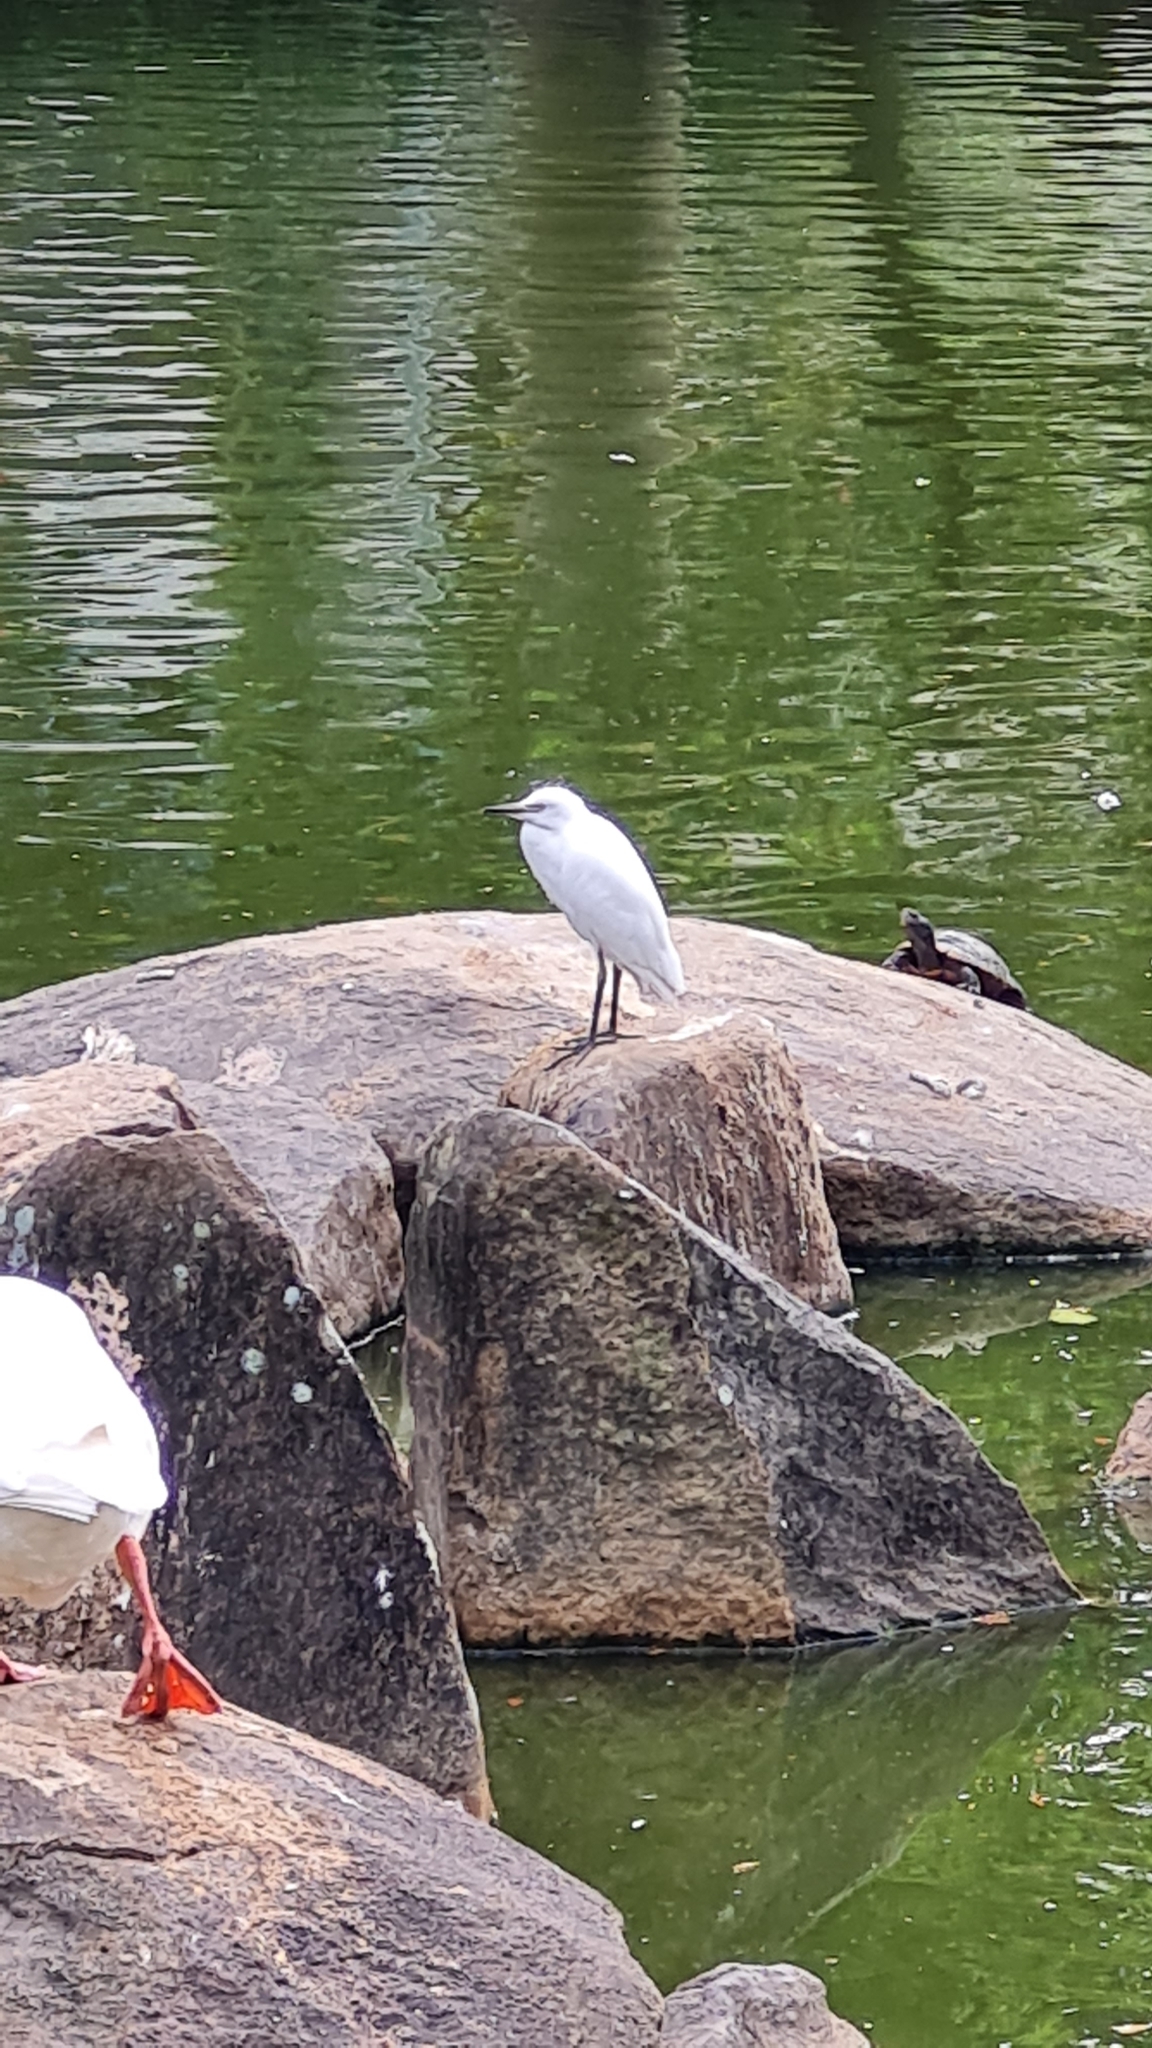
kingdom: Animalia
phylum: Chordata
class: Aves
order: Pelecaniformes
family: Ardeidae
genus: Bubulcus
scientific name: Bubulcus ibis
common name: Cattle egret
